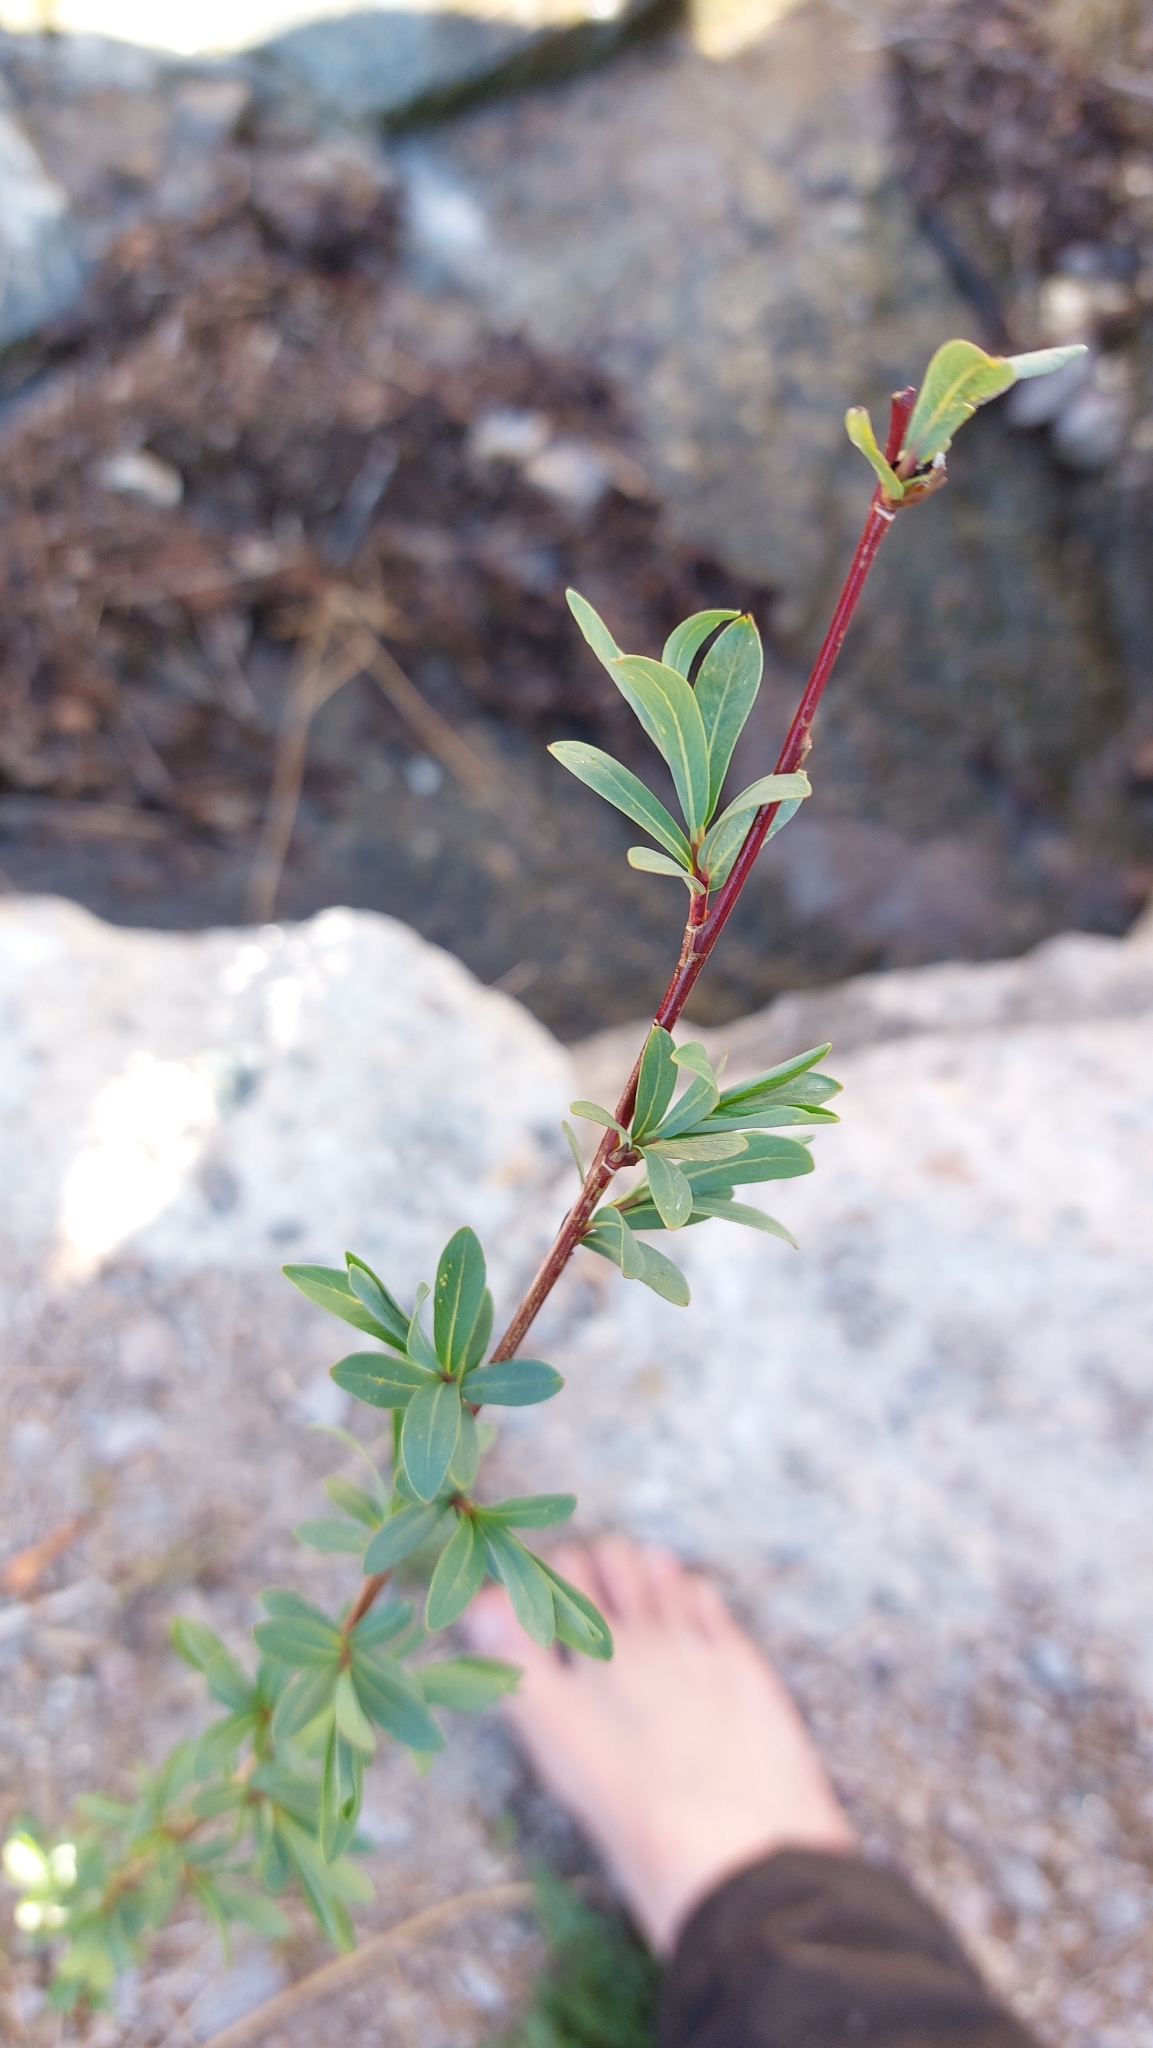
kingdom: Plantae
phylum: Tracheophyta
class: Magnoliopsida
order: Malpighiales
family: Salicaceae
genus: Salix
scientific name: Salix purpurea
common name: Purple willow
